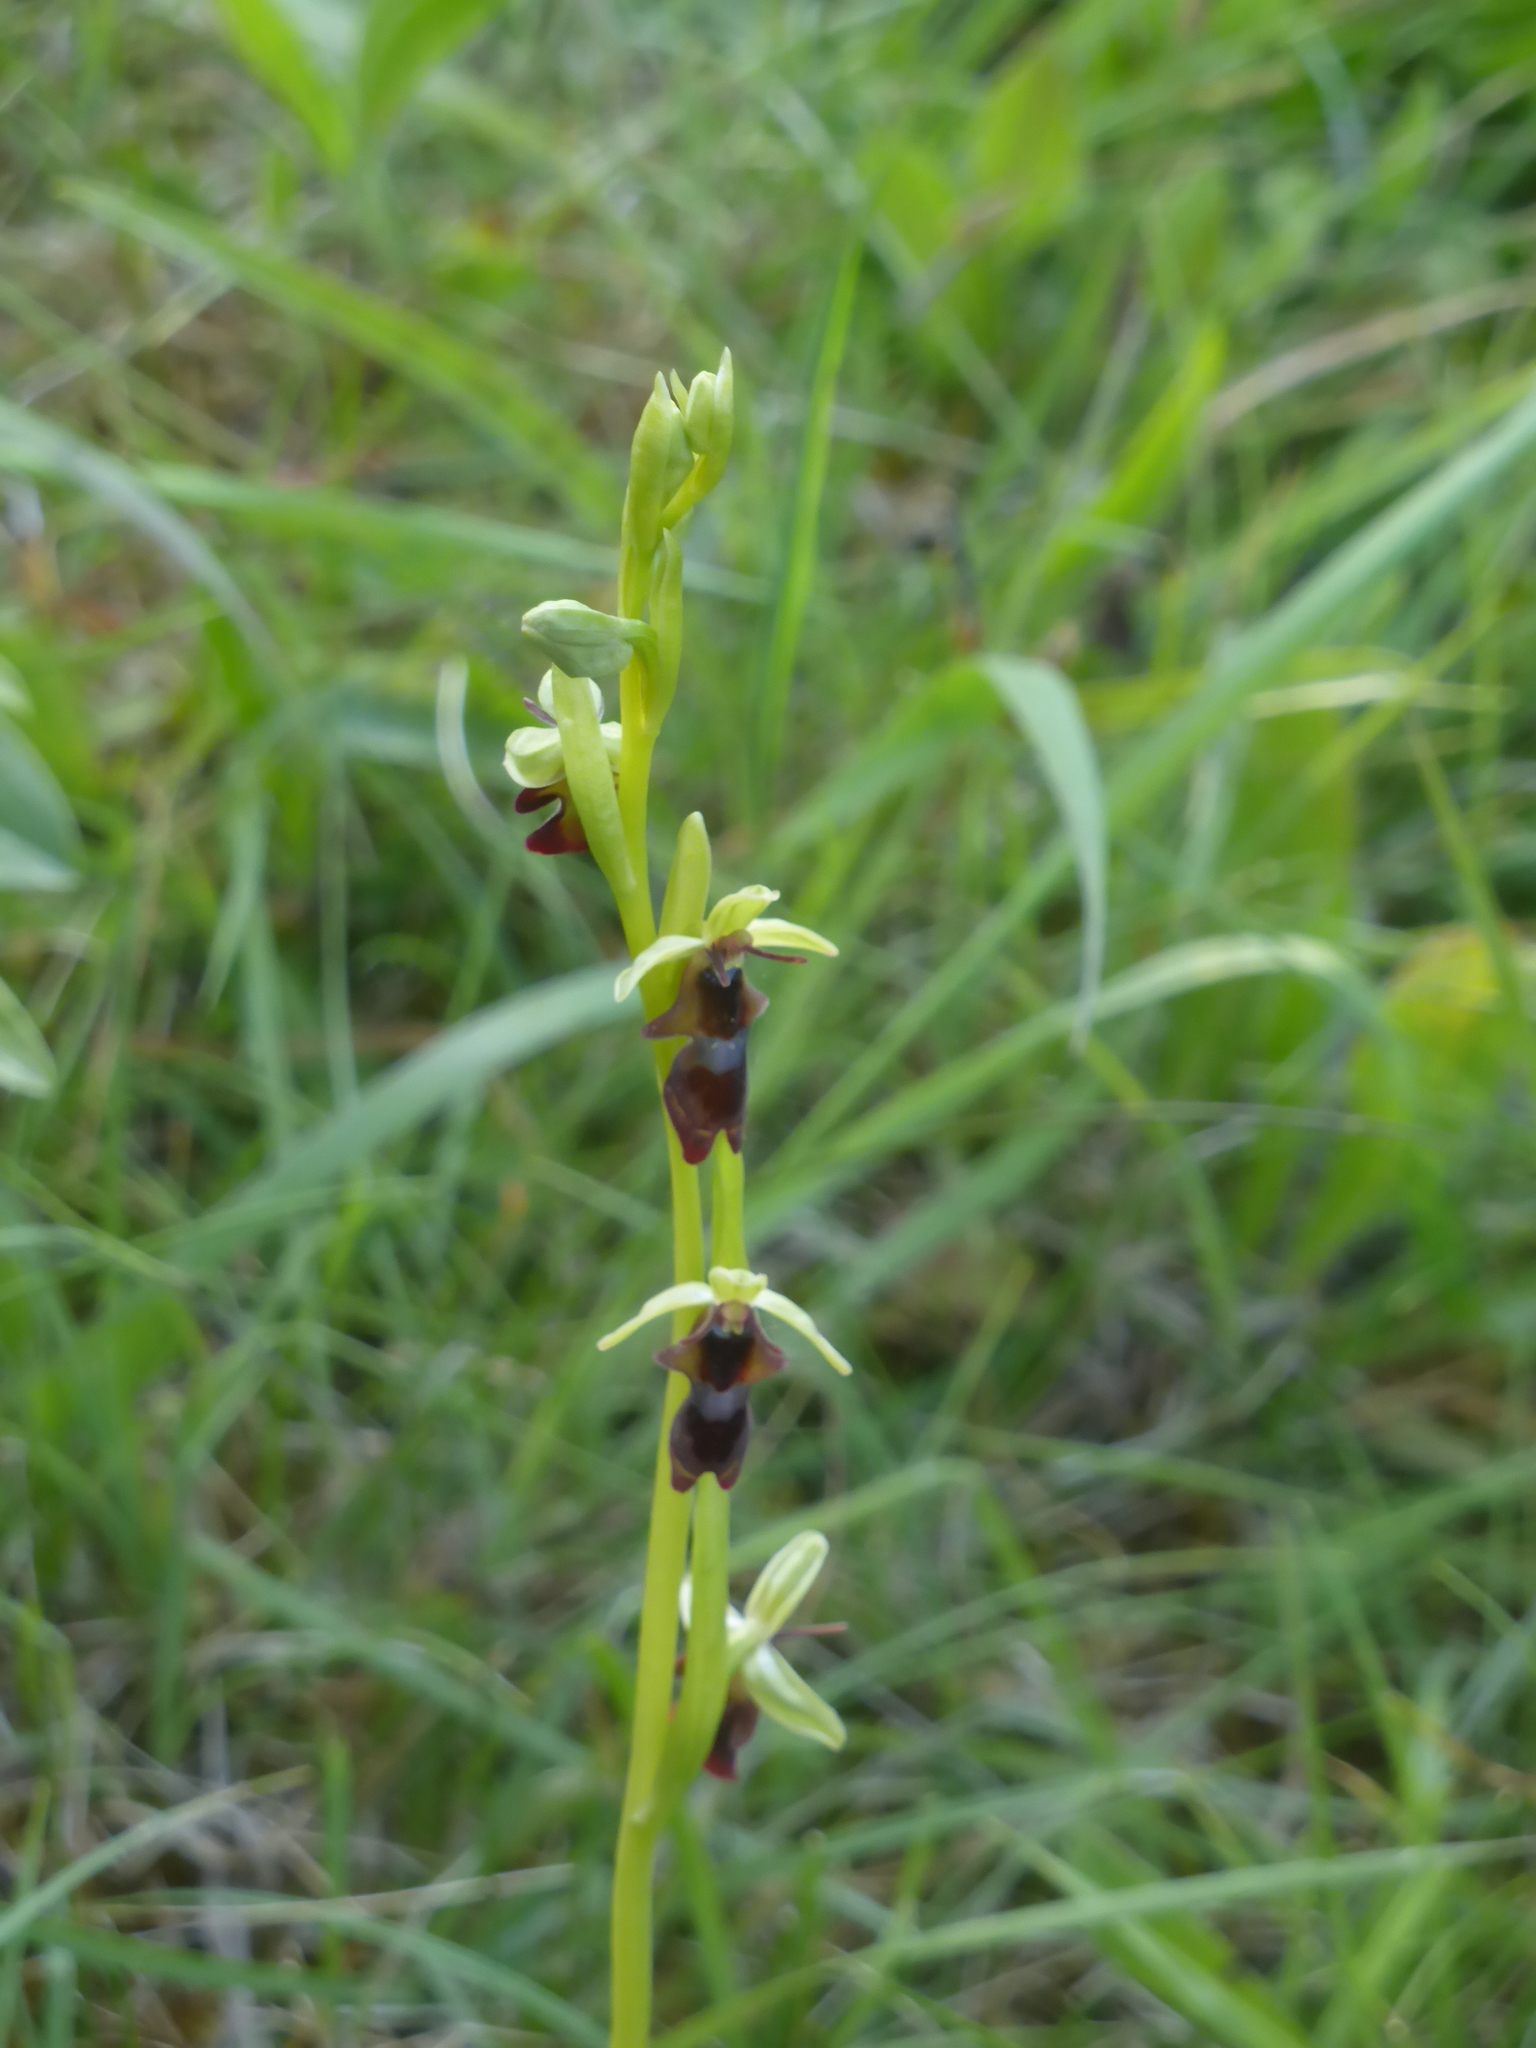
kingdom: Plantae
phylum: Tracheophyta
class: Liliopsida
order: Asparagales
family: Orchidaceae
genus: Ophrys
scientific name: Ophrys insectifera
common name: Fly orchid
